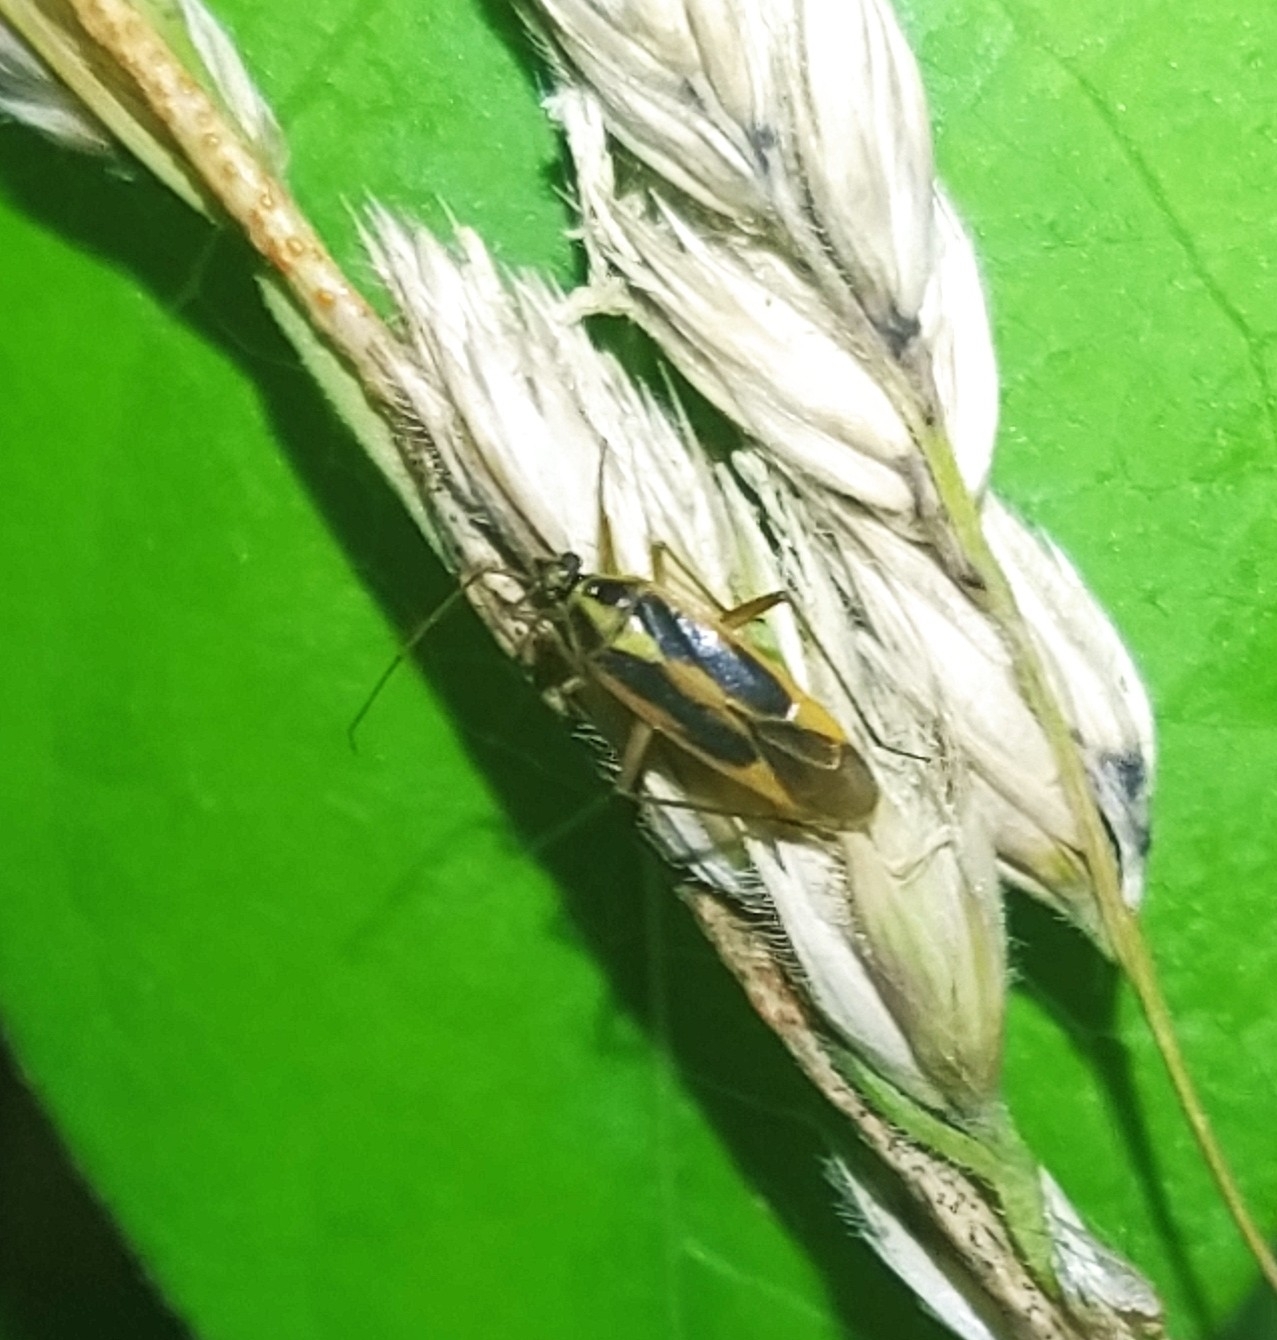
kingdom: Animalia
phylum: Arthropoda
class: Insecta
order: Hemiptera
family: Miridae
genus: Stenotus
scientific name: Stenotus binotatus
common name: Plant bug
